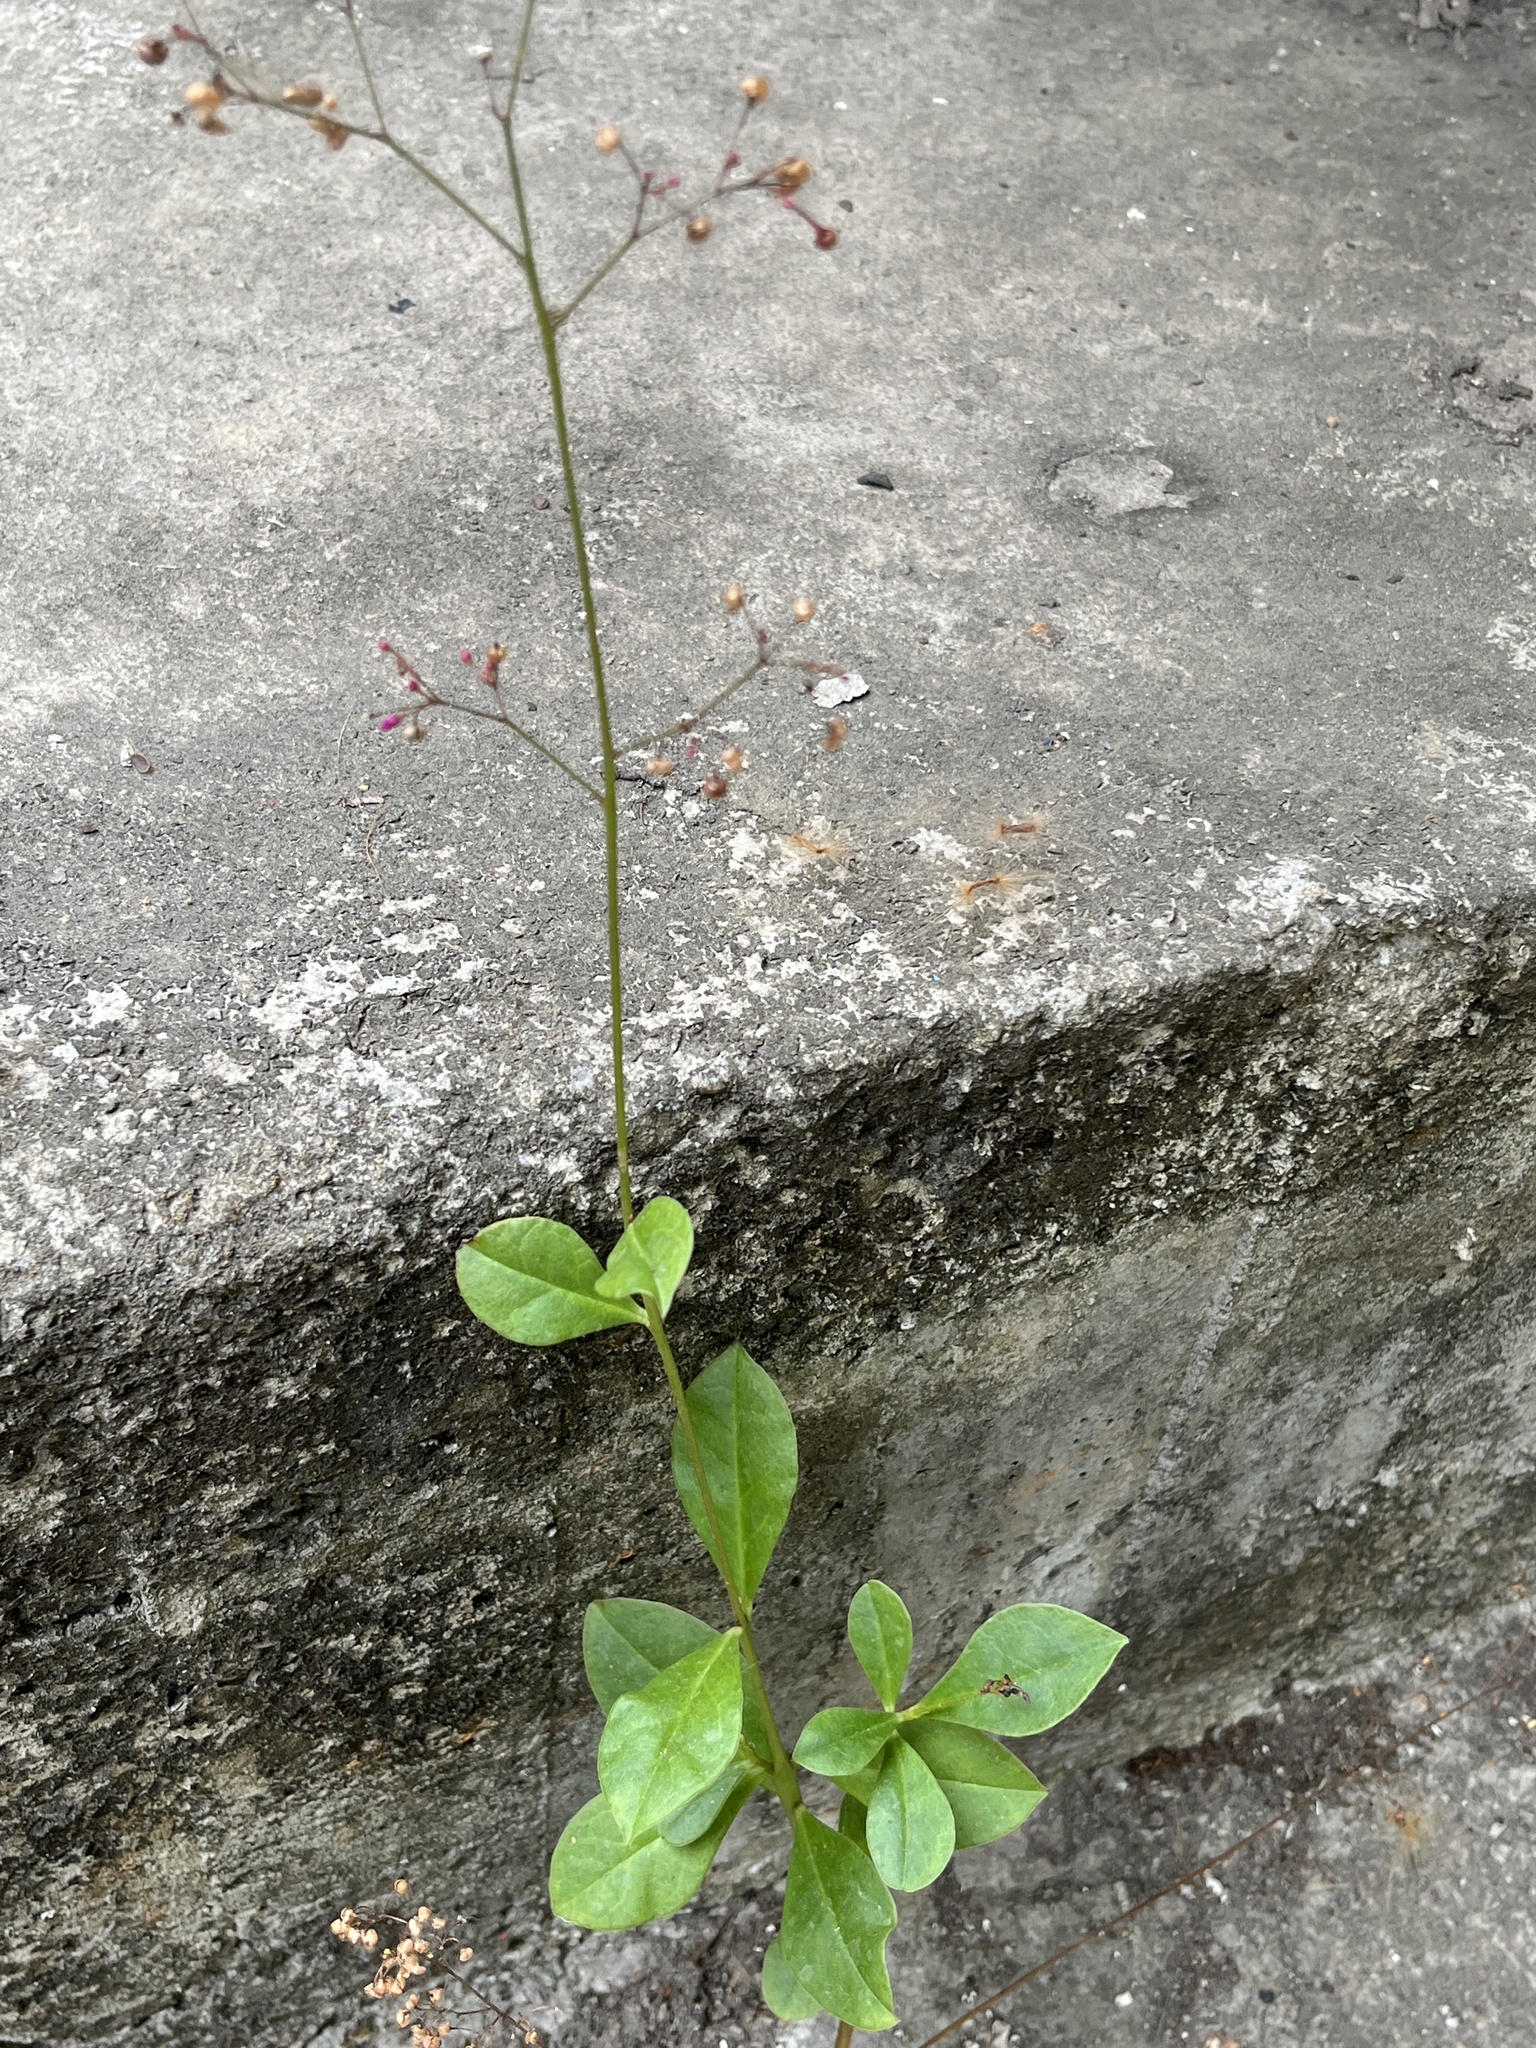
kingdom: Plantae
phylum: Tracheophyta
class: Magnoliopsida
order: Caryophyllales
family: Talinaceae
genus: Talinum
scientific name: Talinum paniculatum
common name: Jewels of opar
